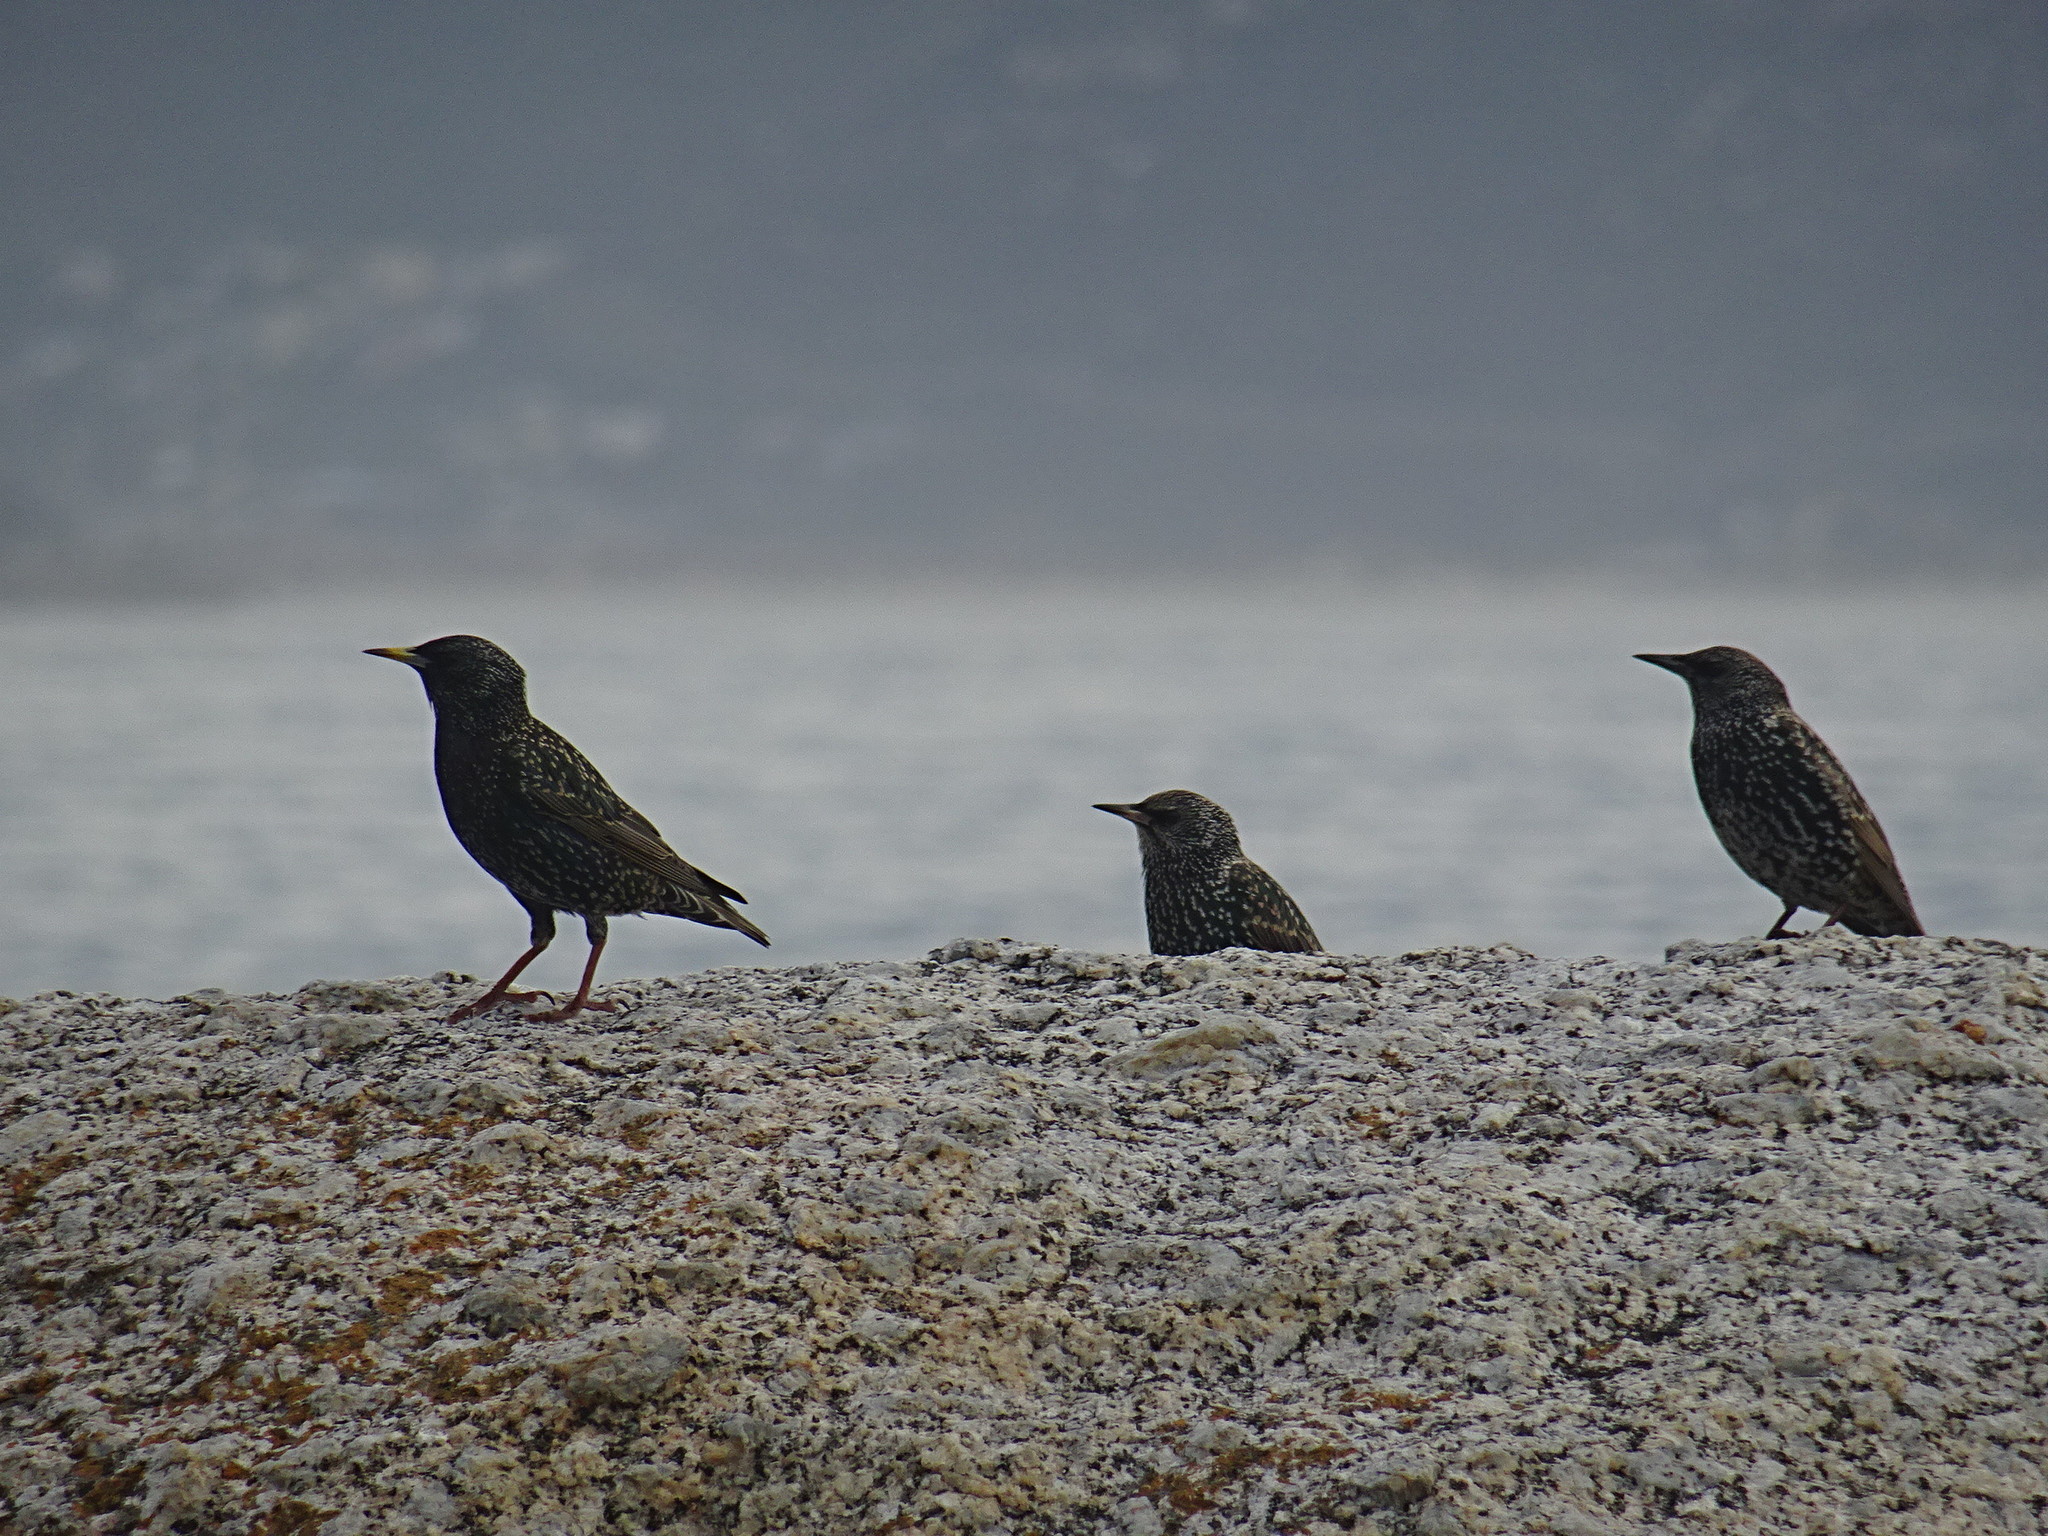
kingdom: Animalia
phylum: Chordata
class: Aves
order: Passeriformes
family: Sturnidae
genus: Sturnus
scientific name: Sturnus vulgaris
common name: Common starling
